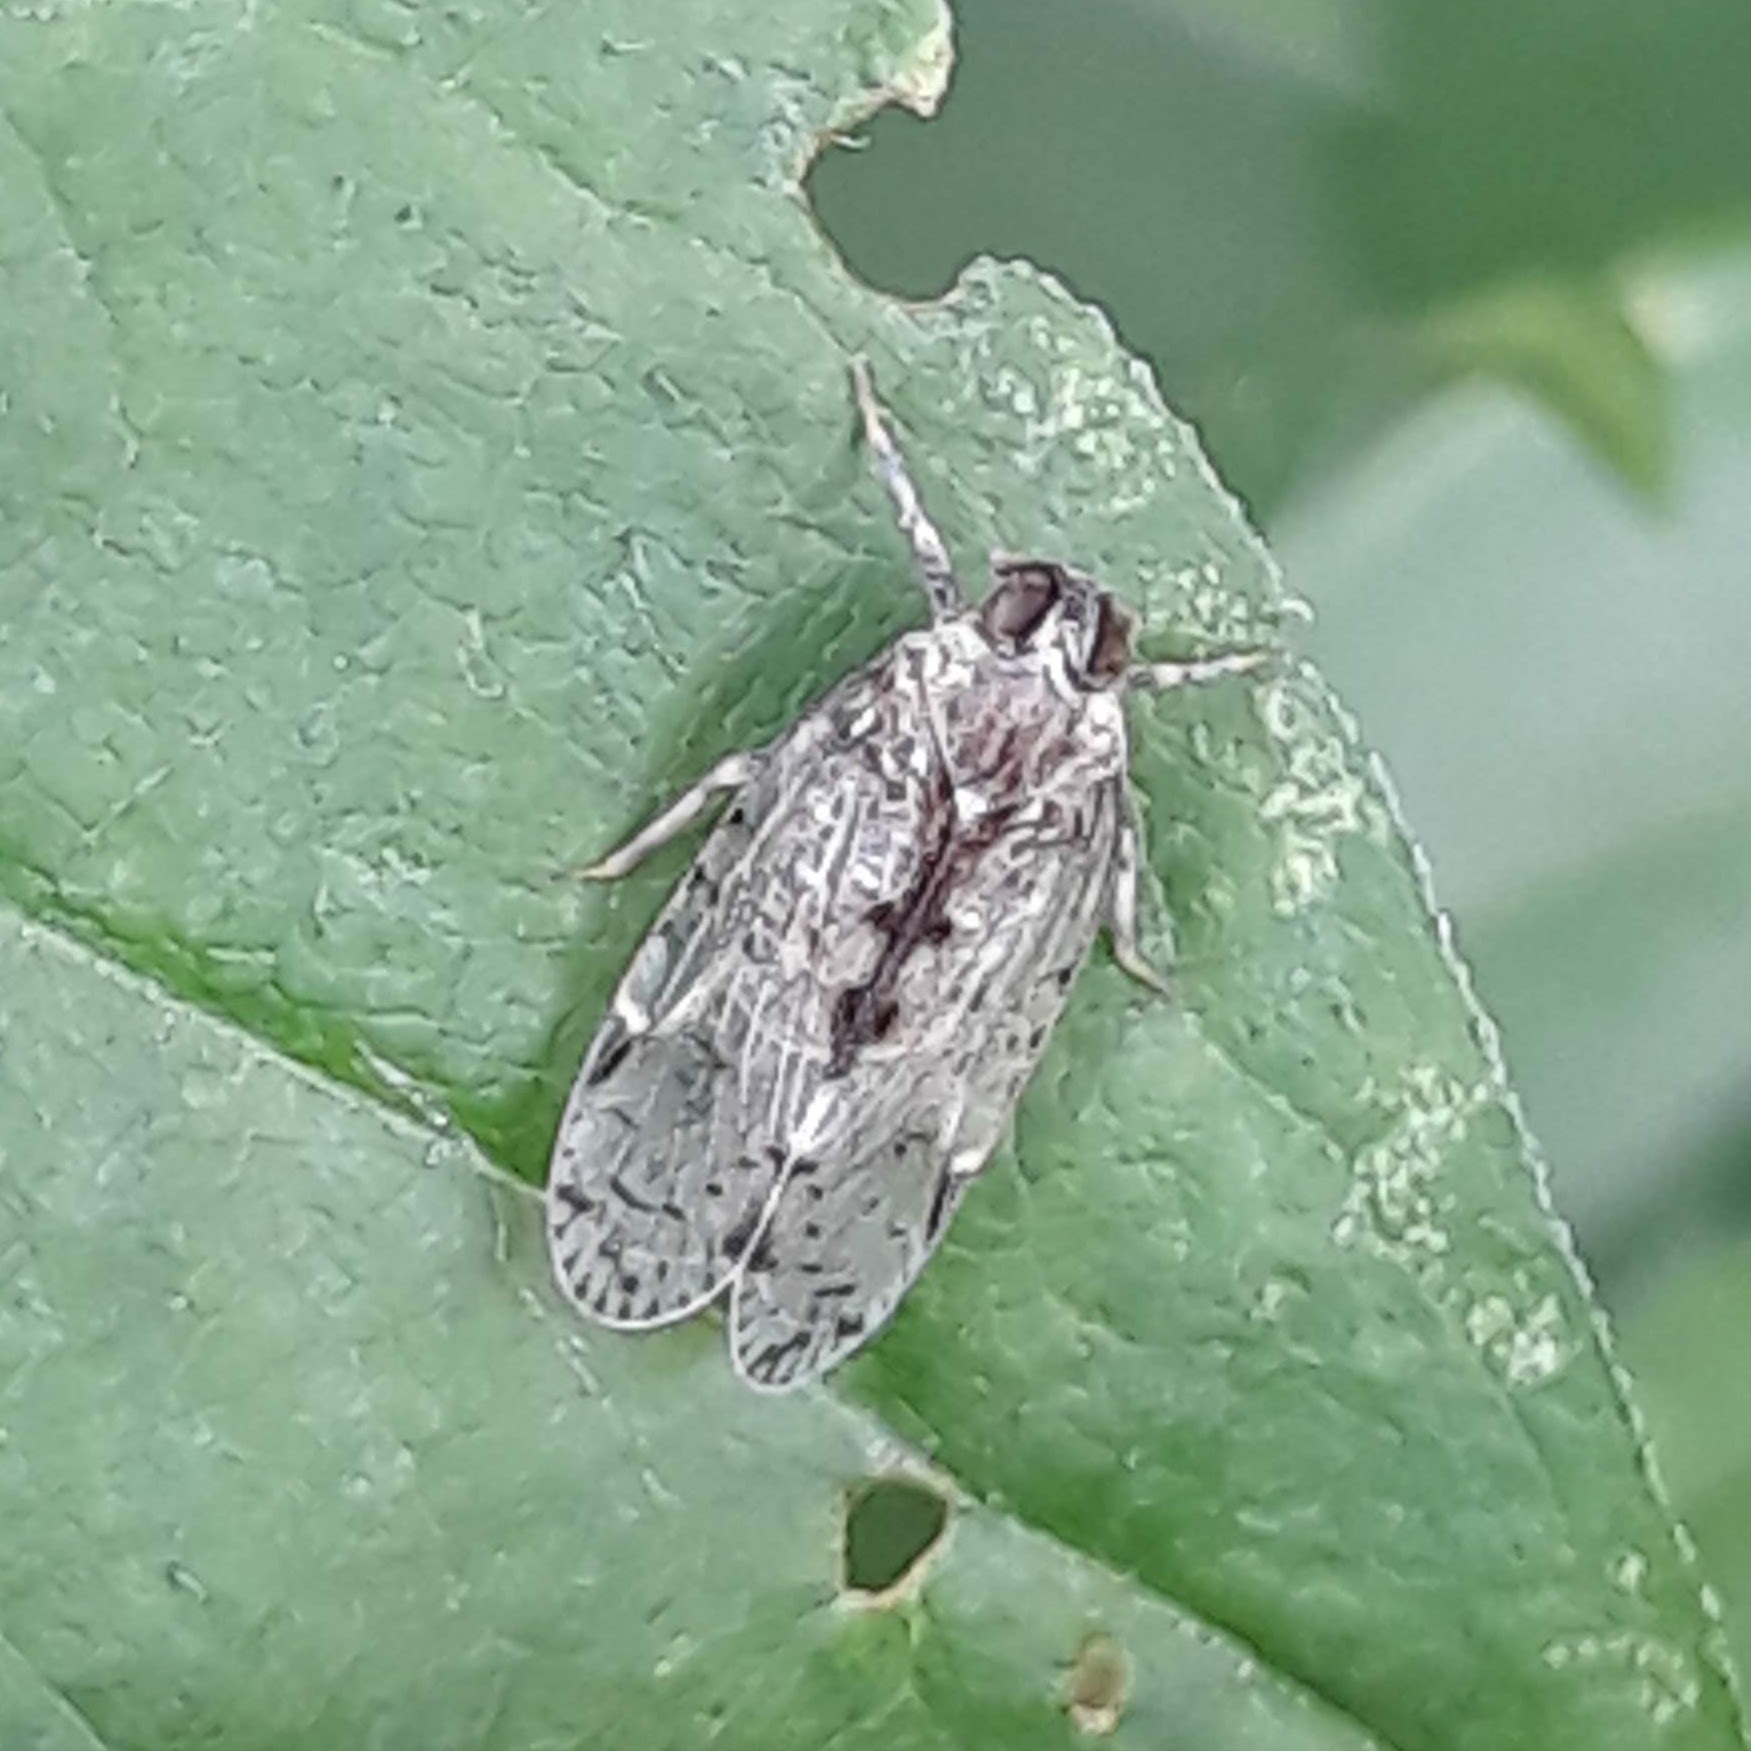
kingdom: Animalia
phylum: Arthropoda
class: Insecta
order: Hemiptera
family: Cixiidae
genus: Melanoliarus
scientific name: Melanoliarus placitus
